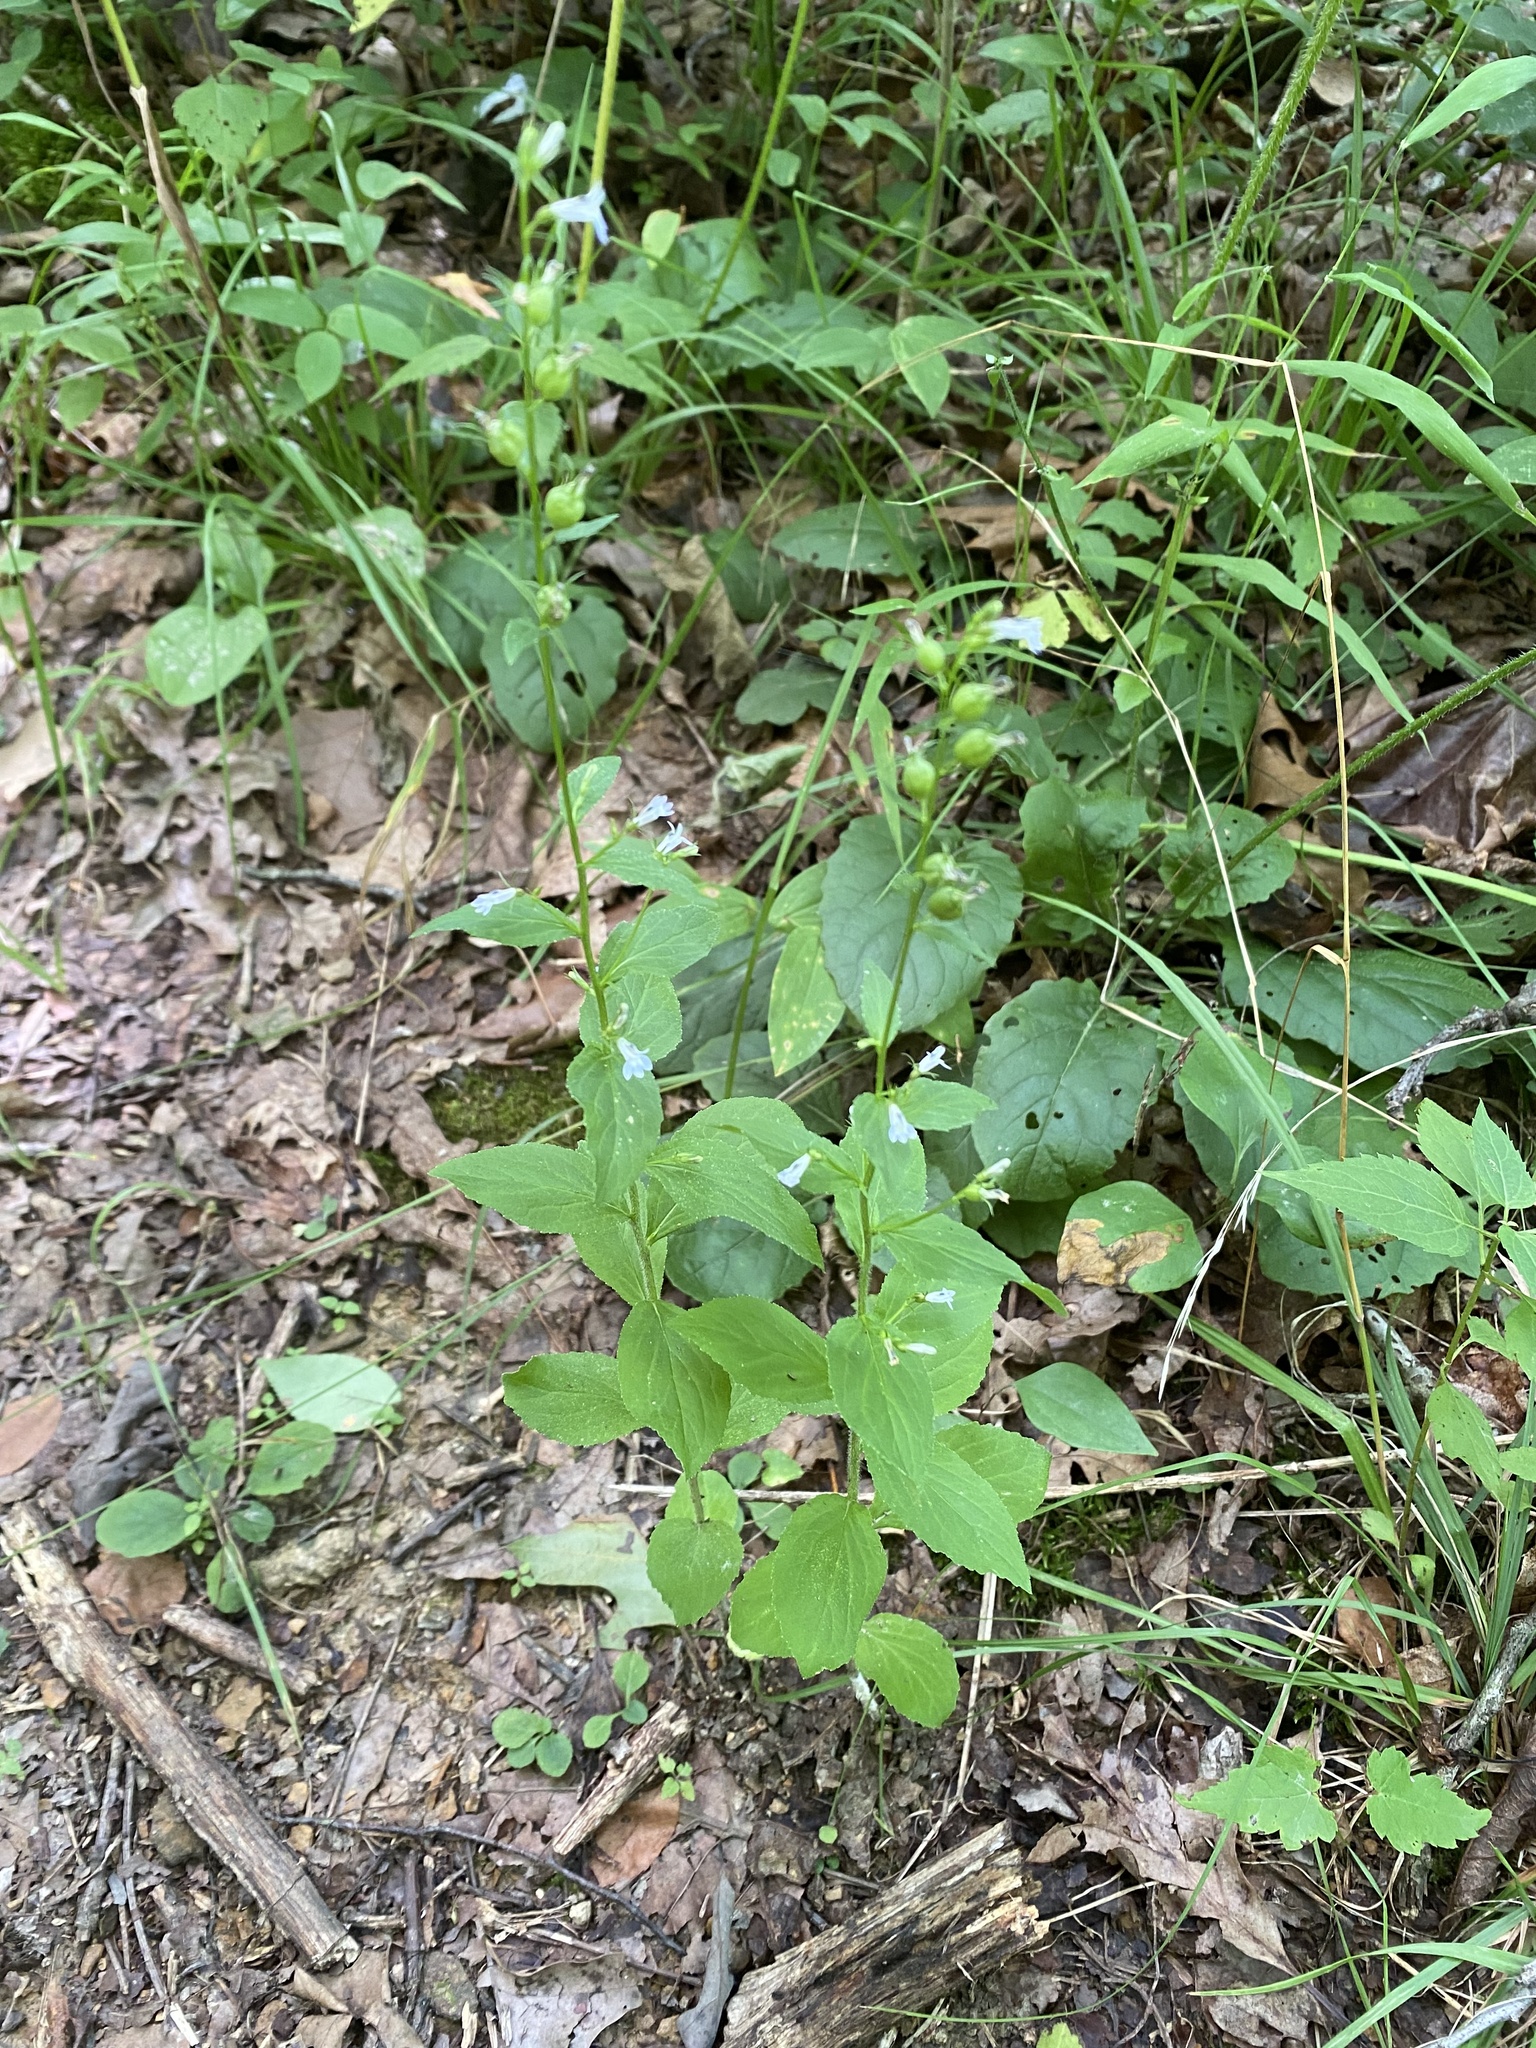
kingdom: Plantae
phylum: Tracheophyta
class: Magnoliopsida
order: Asterales
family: Campanulaceae
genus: Lobelia
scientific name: Lobelia inflata
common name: Indian tobacco
